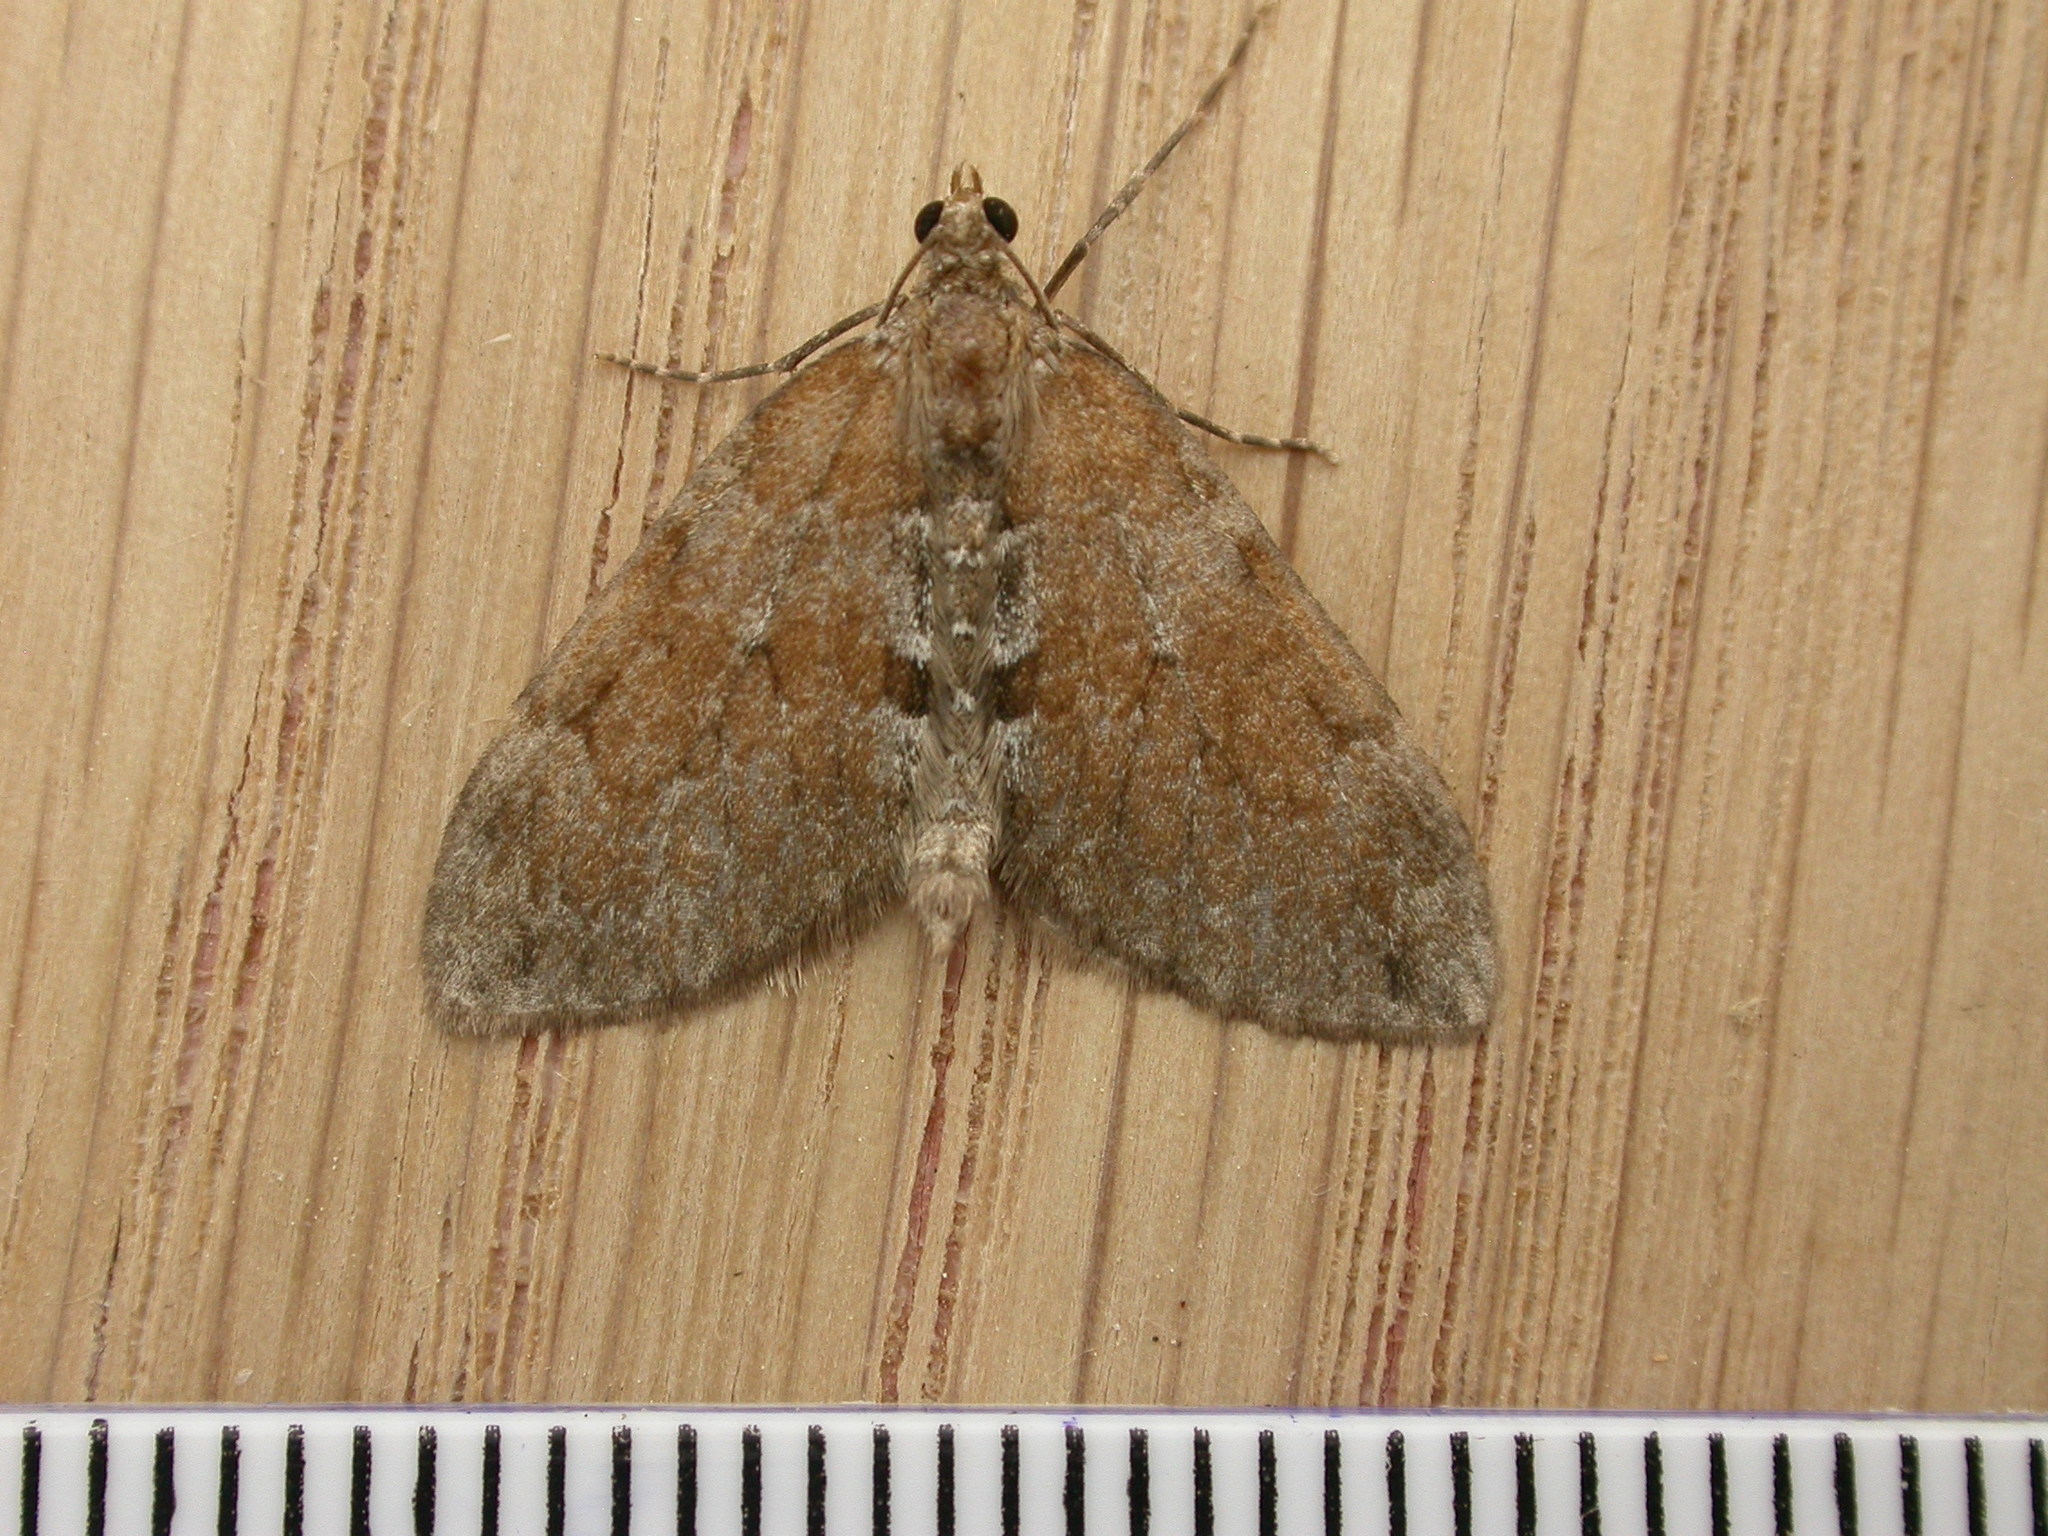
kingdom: Animalia
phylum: Arthropoda
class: Insecta
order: Lepidoptera
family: Geometridae
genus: Thera
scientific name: Thera obeliscata
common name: Grey pine carpet
